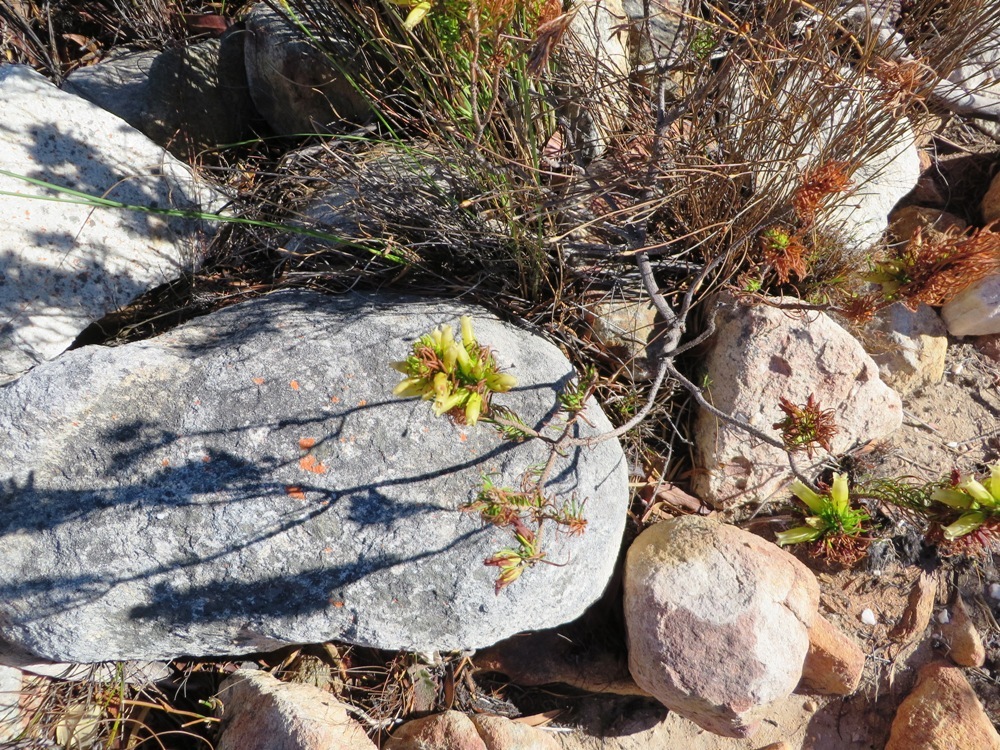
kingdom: Plantae
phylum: Tracheophyta
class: Magnoliopsida
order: Ericales
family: Ericaceae
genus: Erica
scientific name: Erica viscaria
